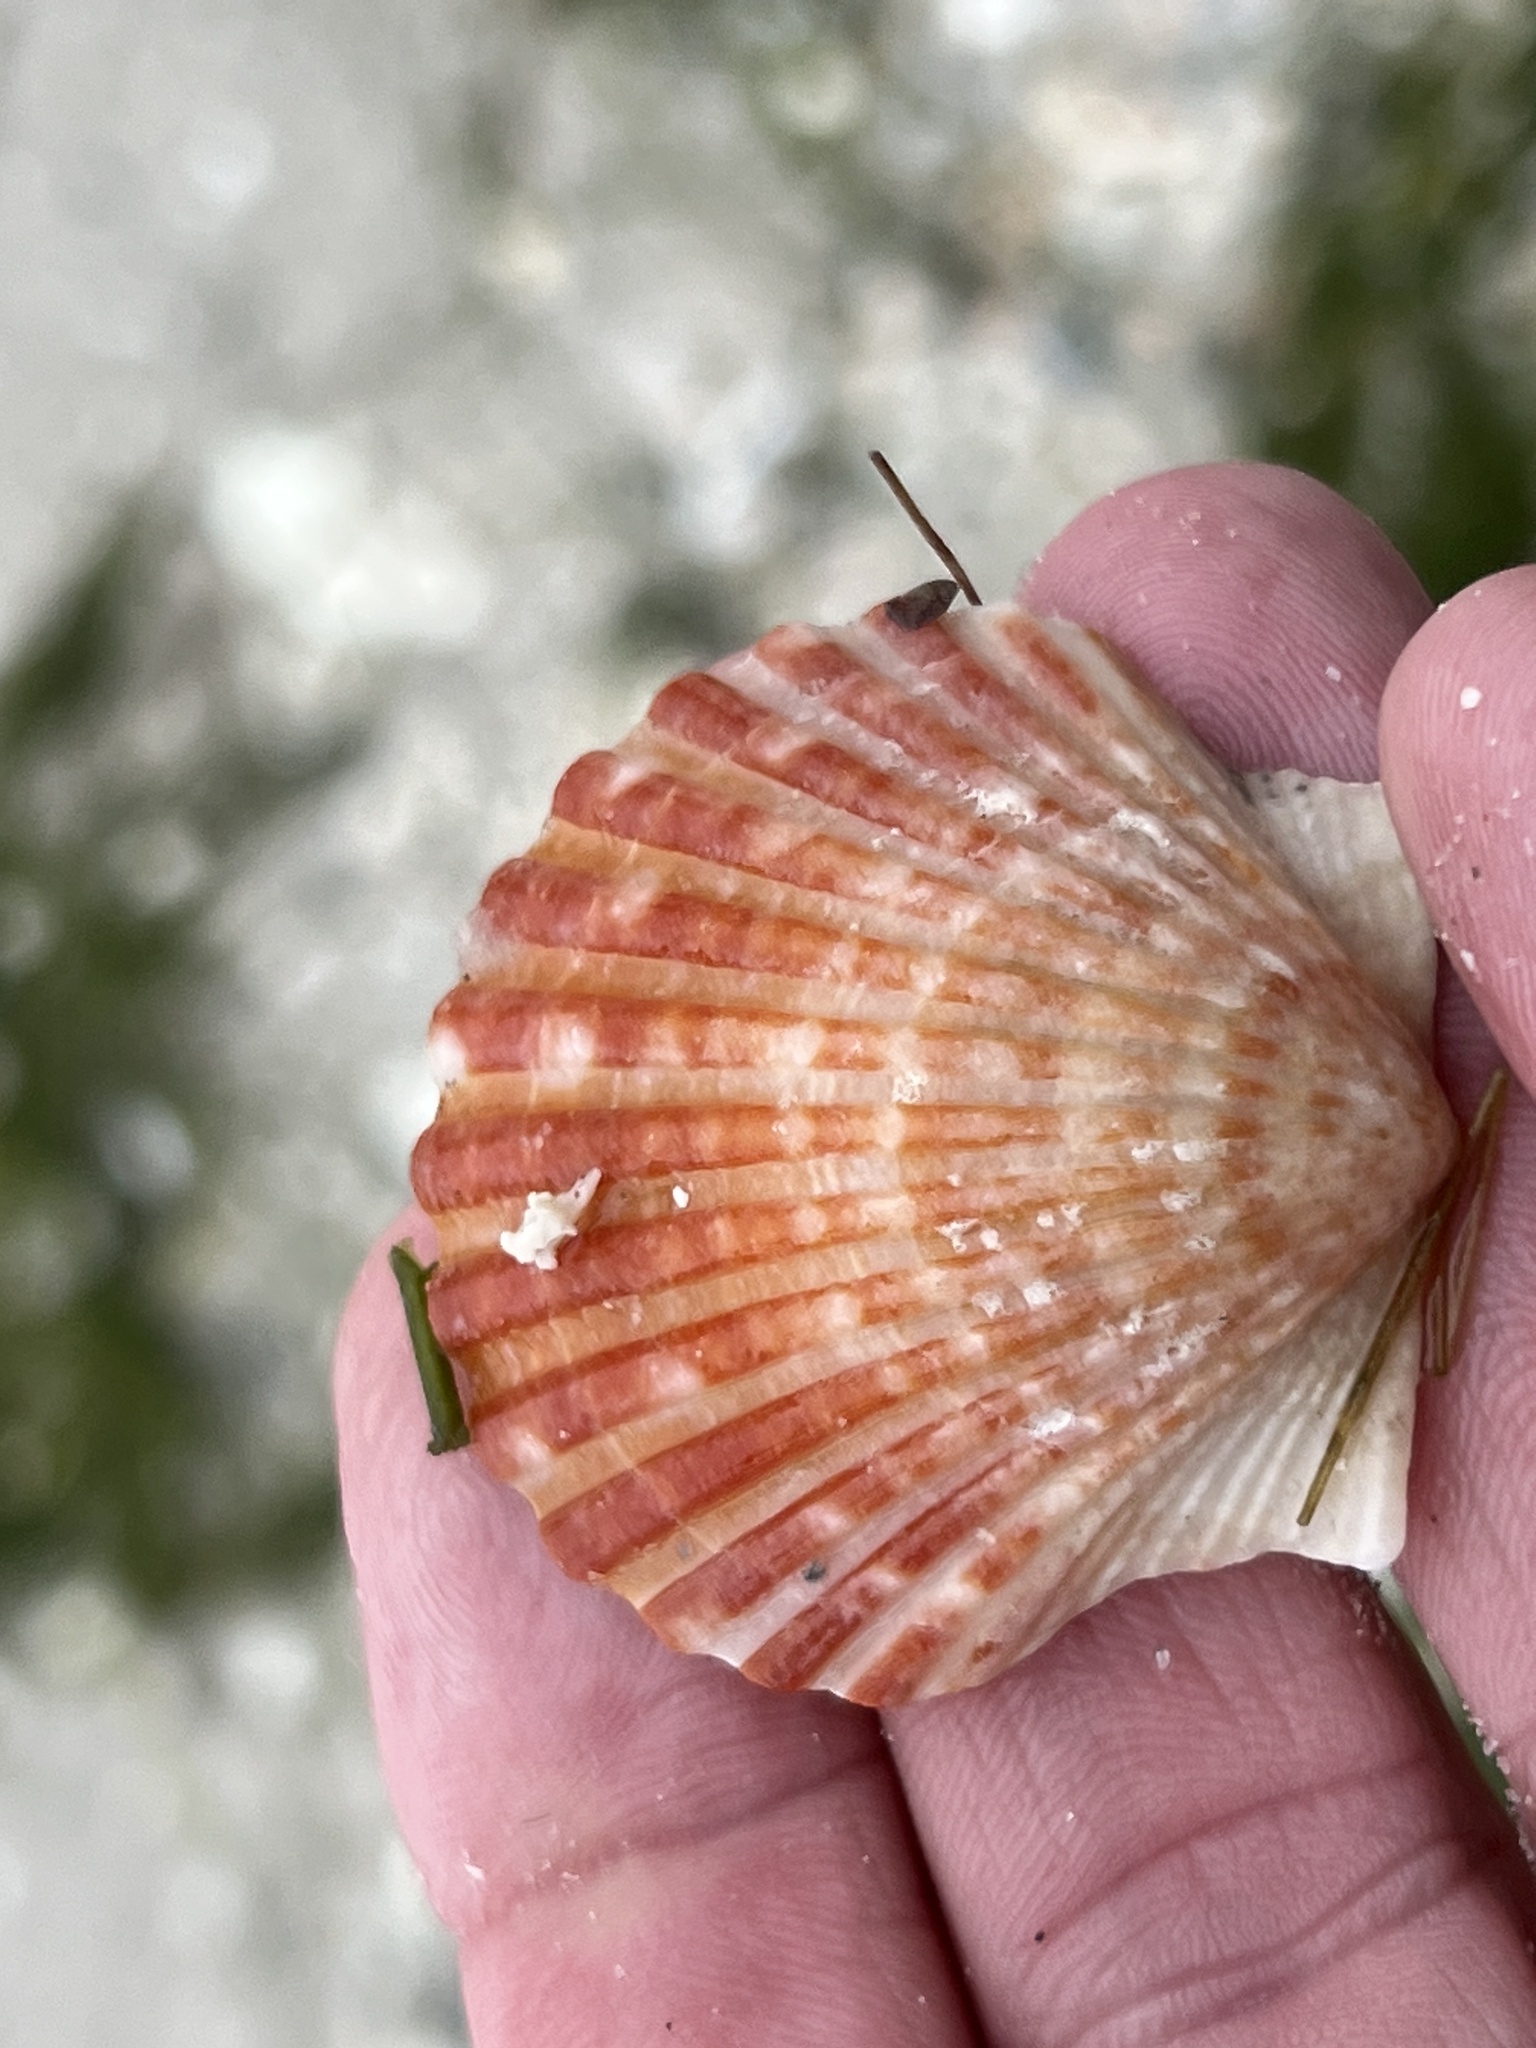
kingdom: Animalia
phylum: Mollusca
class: Bivalvia
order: Pectinida
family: Pectinidae
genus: Argopecten
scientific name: Argopecten irradians
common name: Atlantic bay scallop
